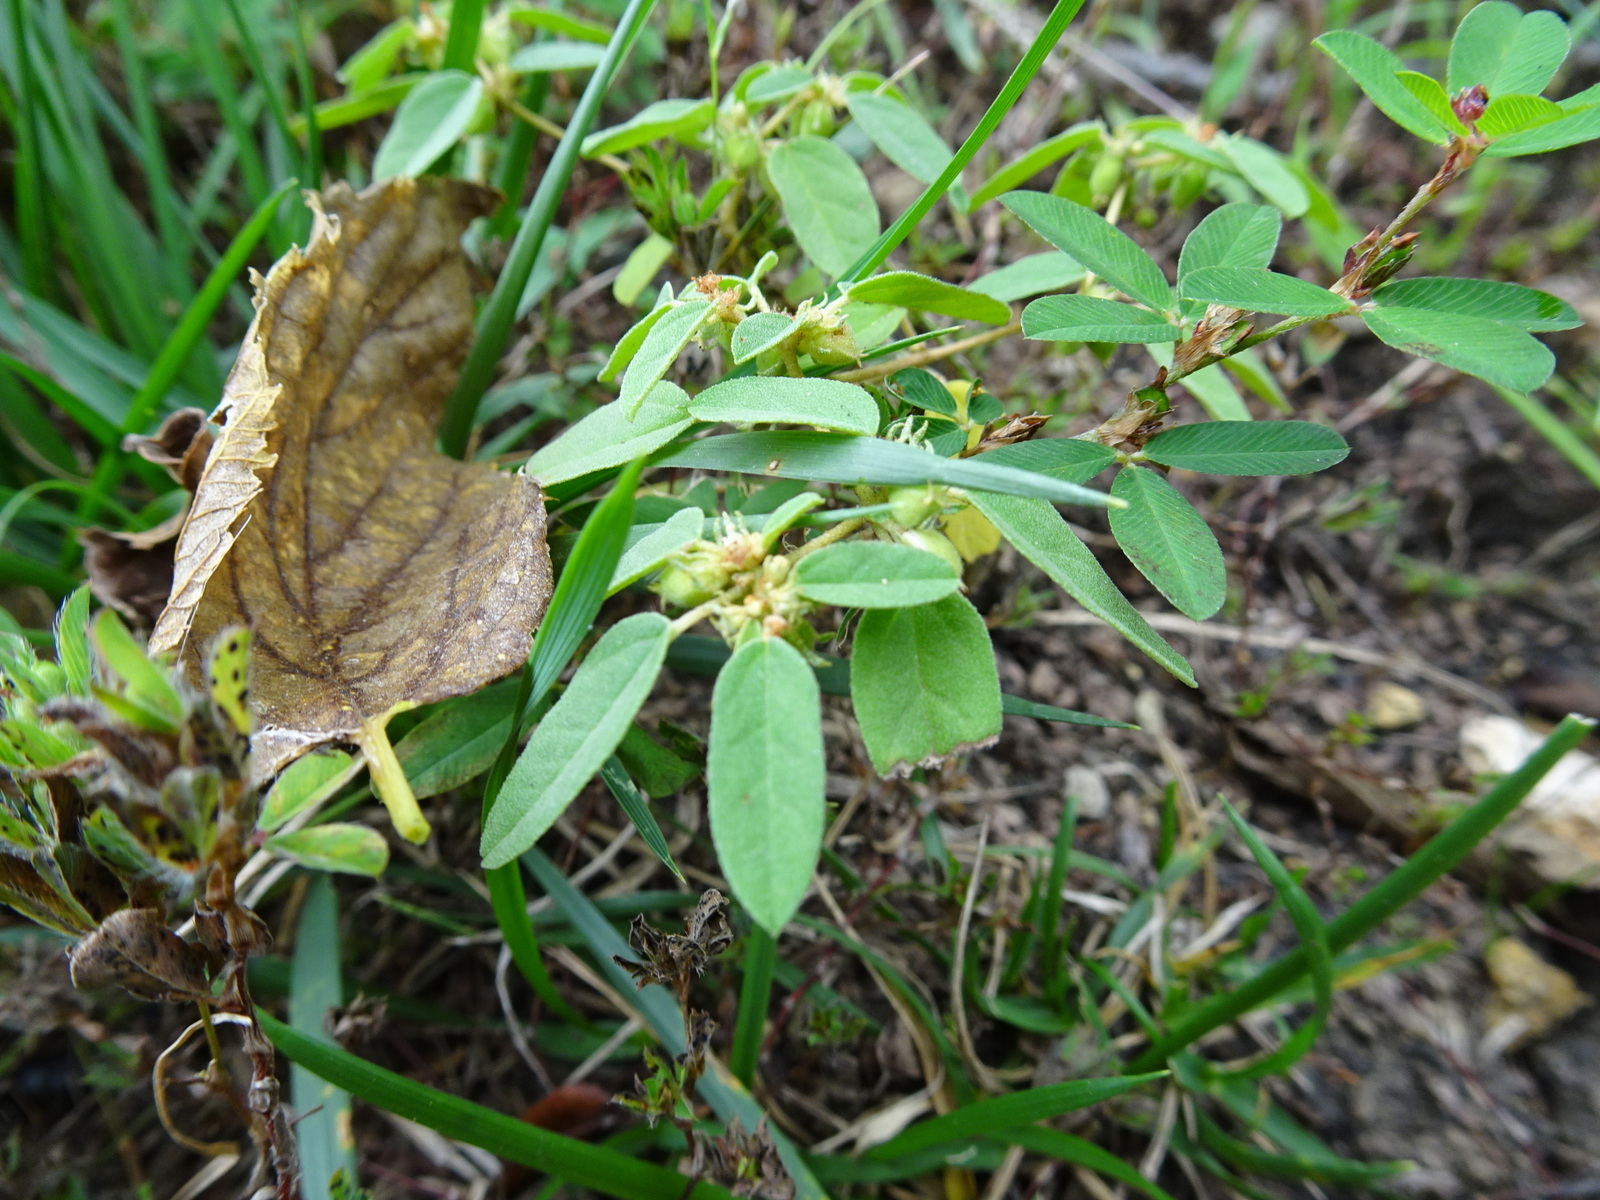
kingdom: Plantae
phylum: Tracheophyta
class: Magnoliopsida
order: Malpighiales
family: Euphorbiaceae
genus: Croton
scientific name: Croton monanthogynus
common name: One-seed croton
